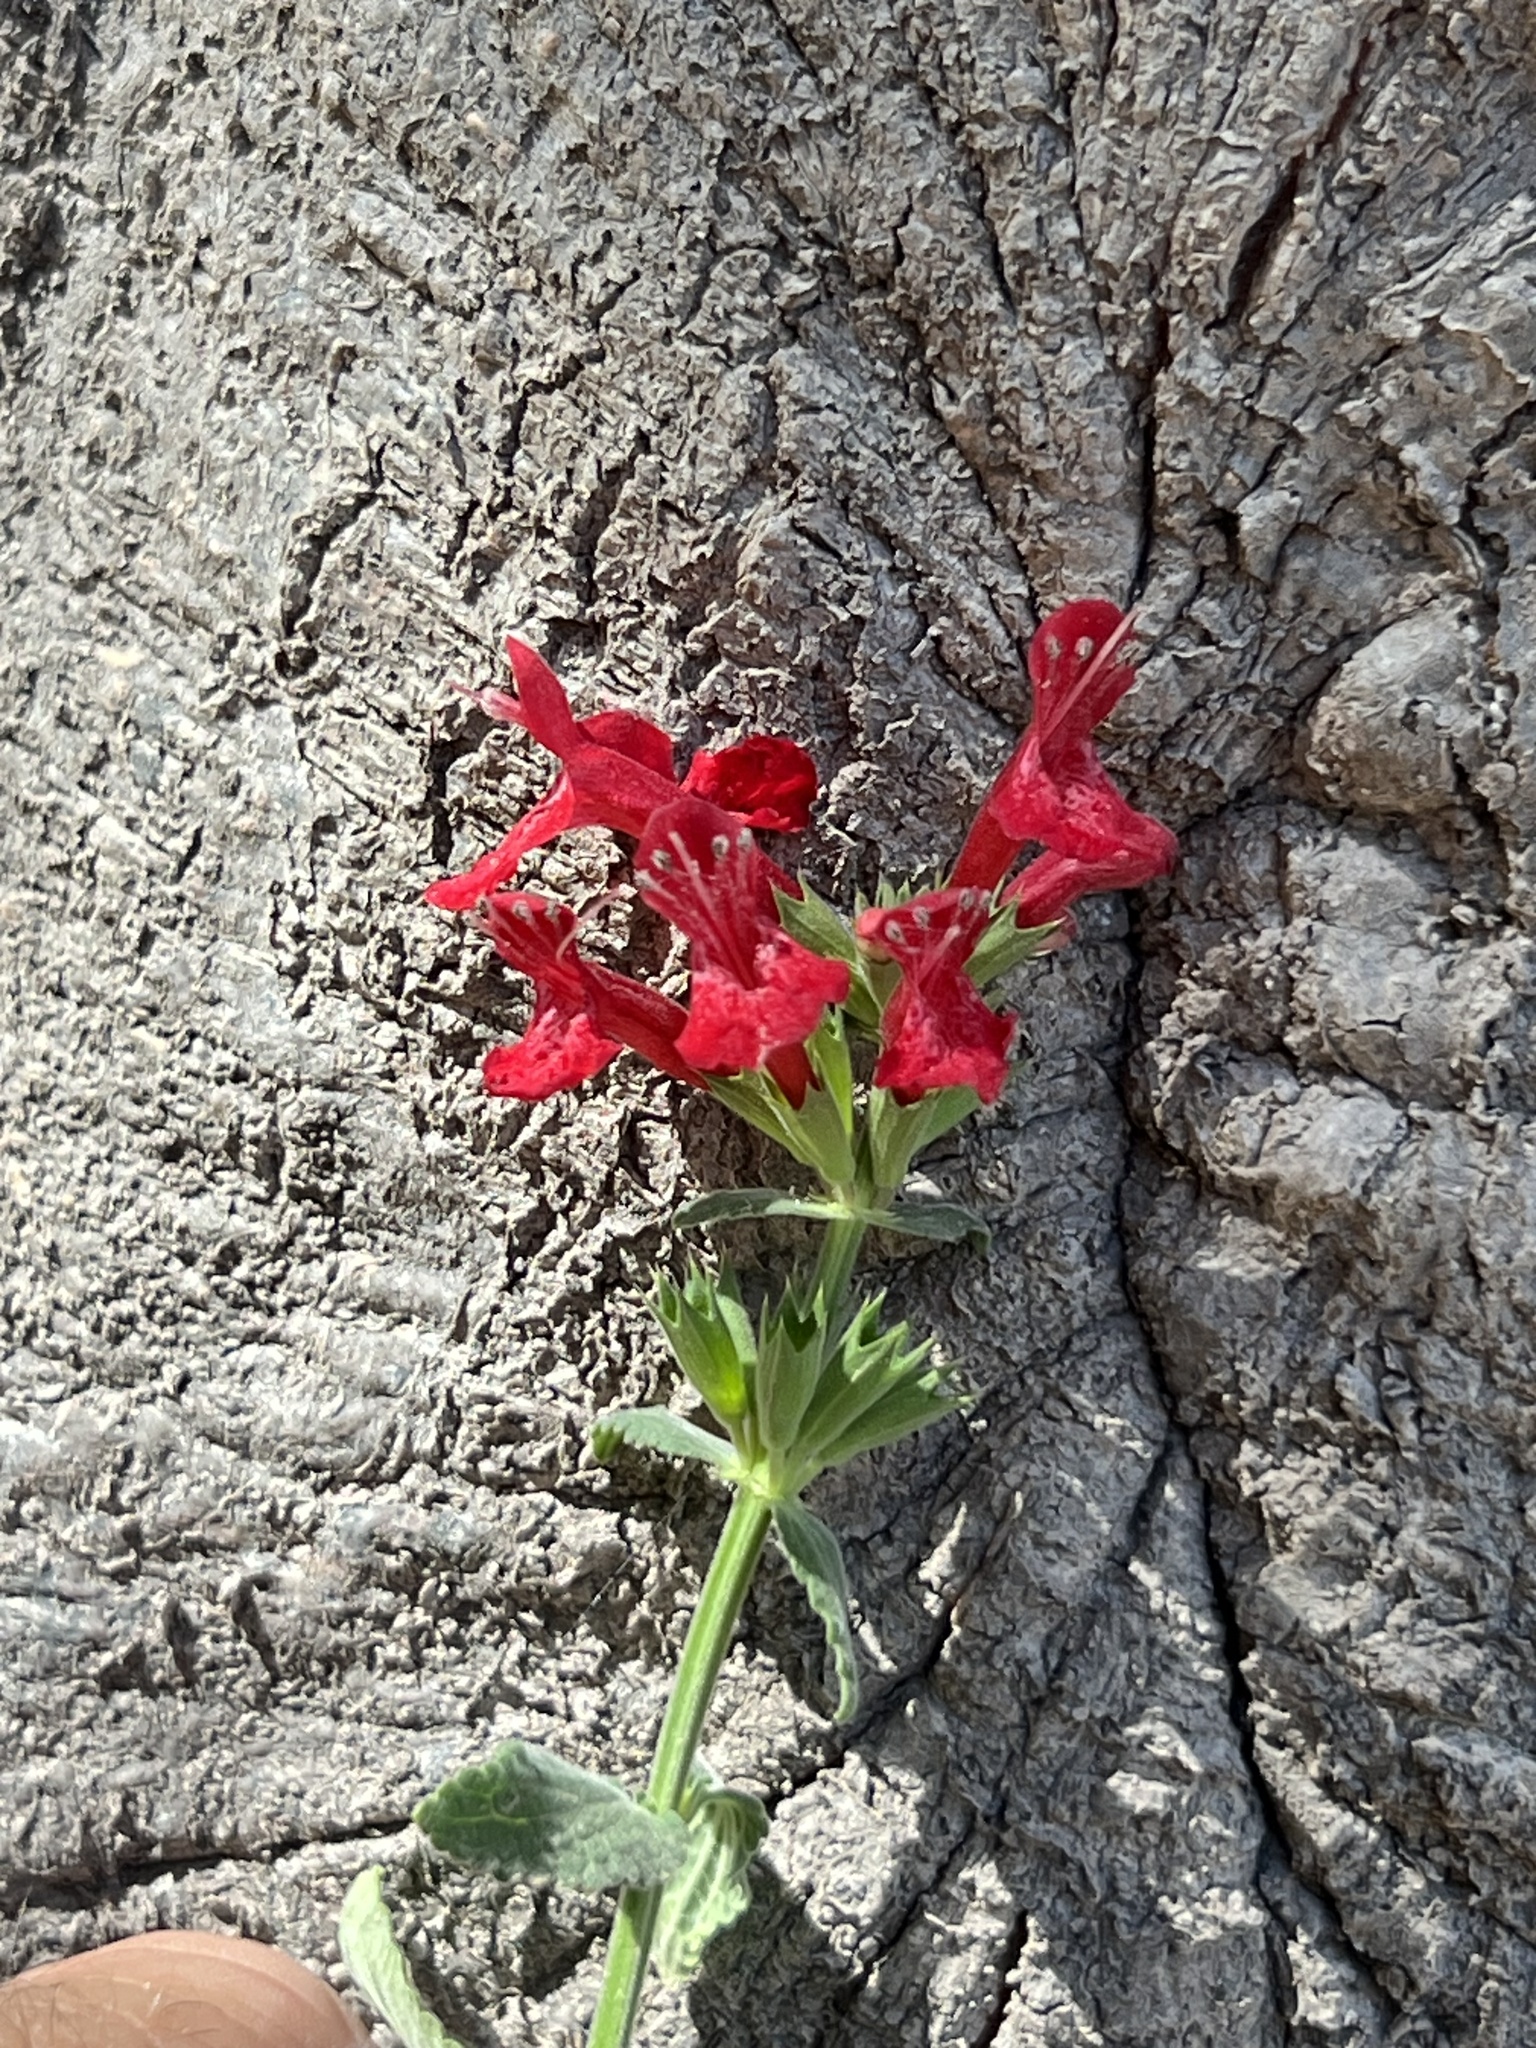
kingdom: Plantae
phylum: Tracheophyta
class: Magnoliopsida
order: Lamiales
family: Lamiaceae
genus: Stachys
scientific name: Stachys coccinea
